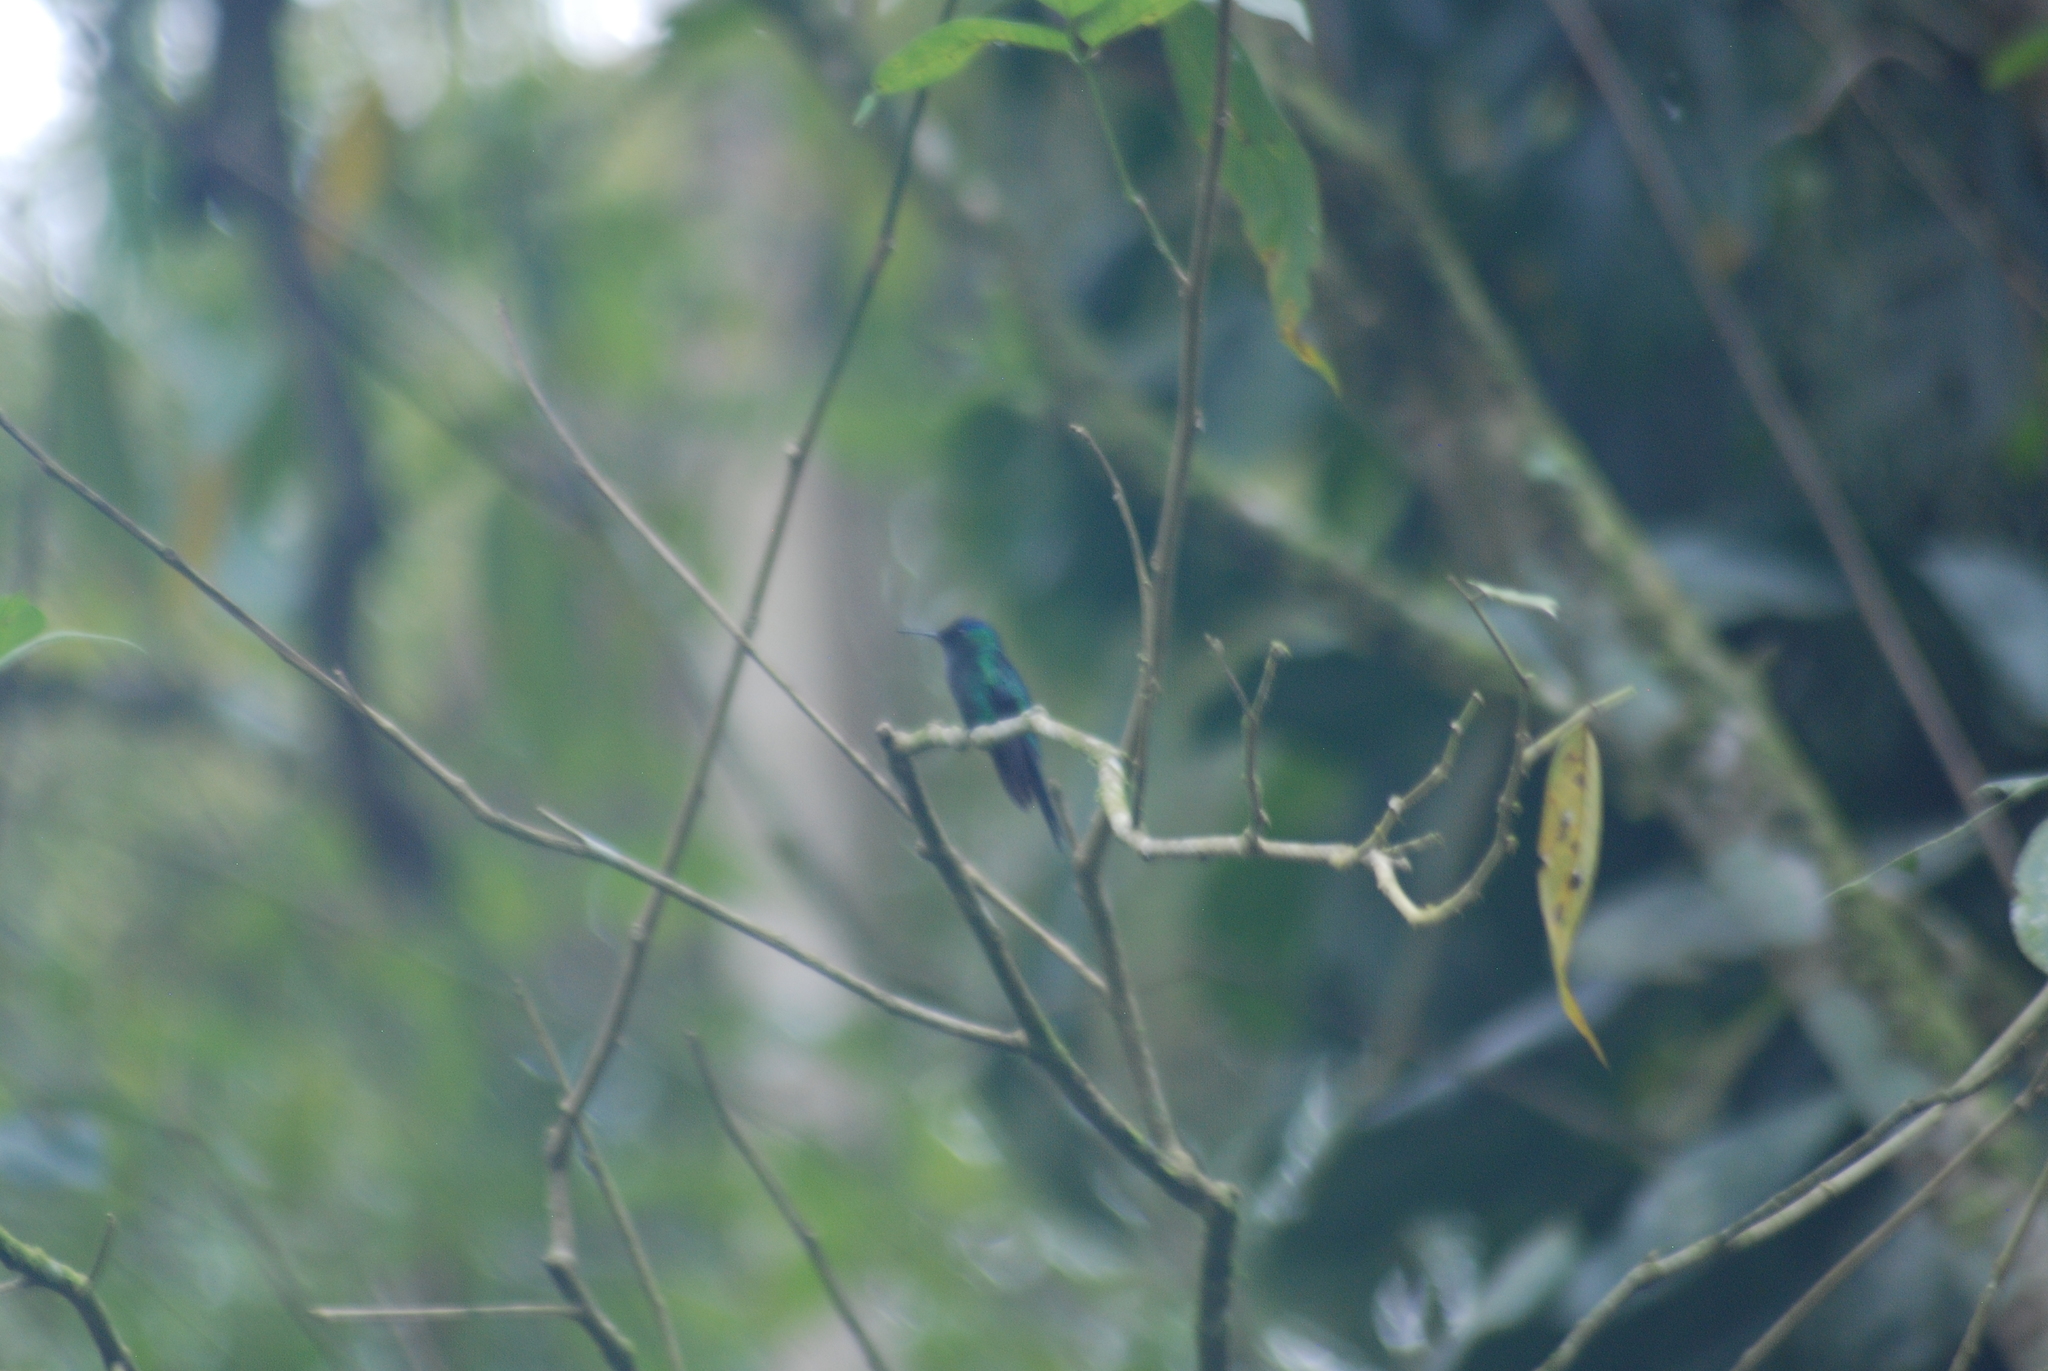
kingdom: Animalia
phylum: Chordata
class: Aves
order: Apodiformes
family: Trochilidae
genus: Thalurania
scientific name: Thalurania glaucopis
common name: Violet-capped woodnymph
